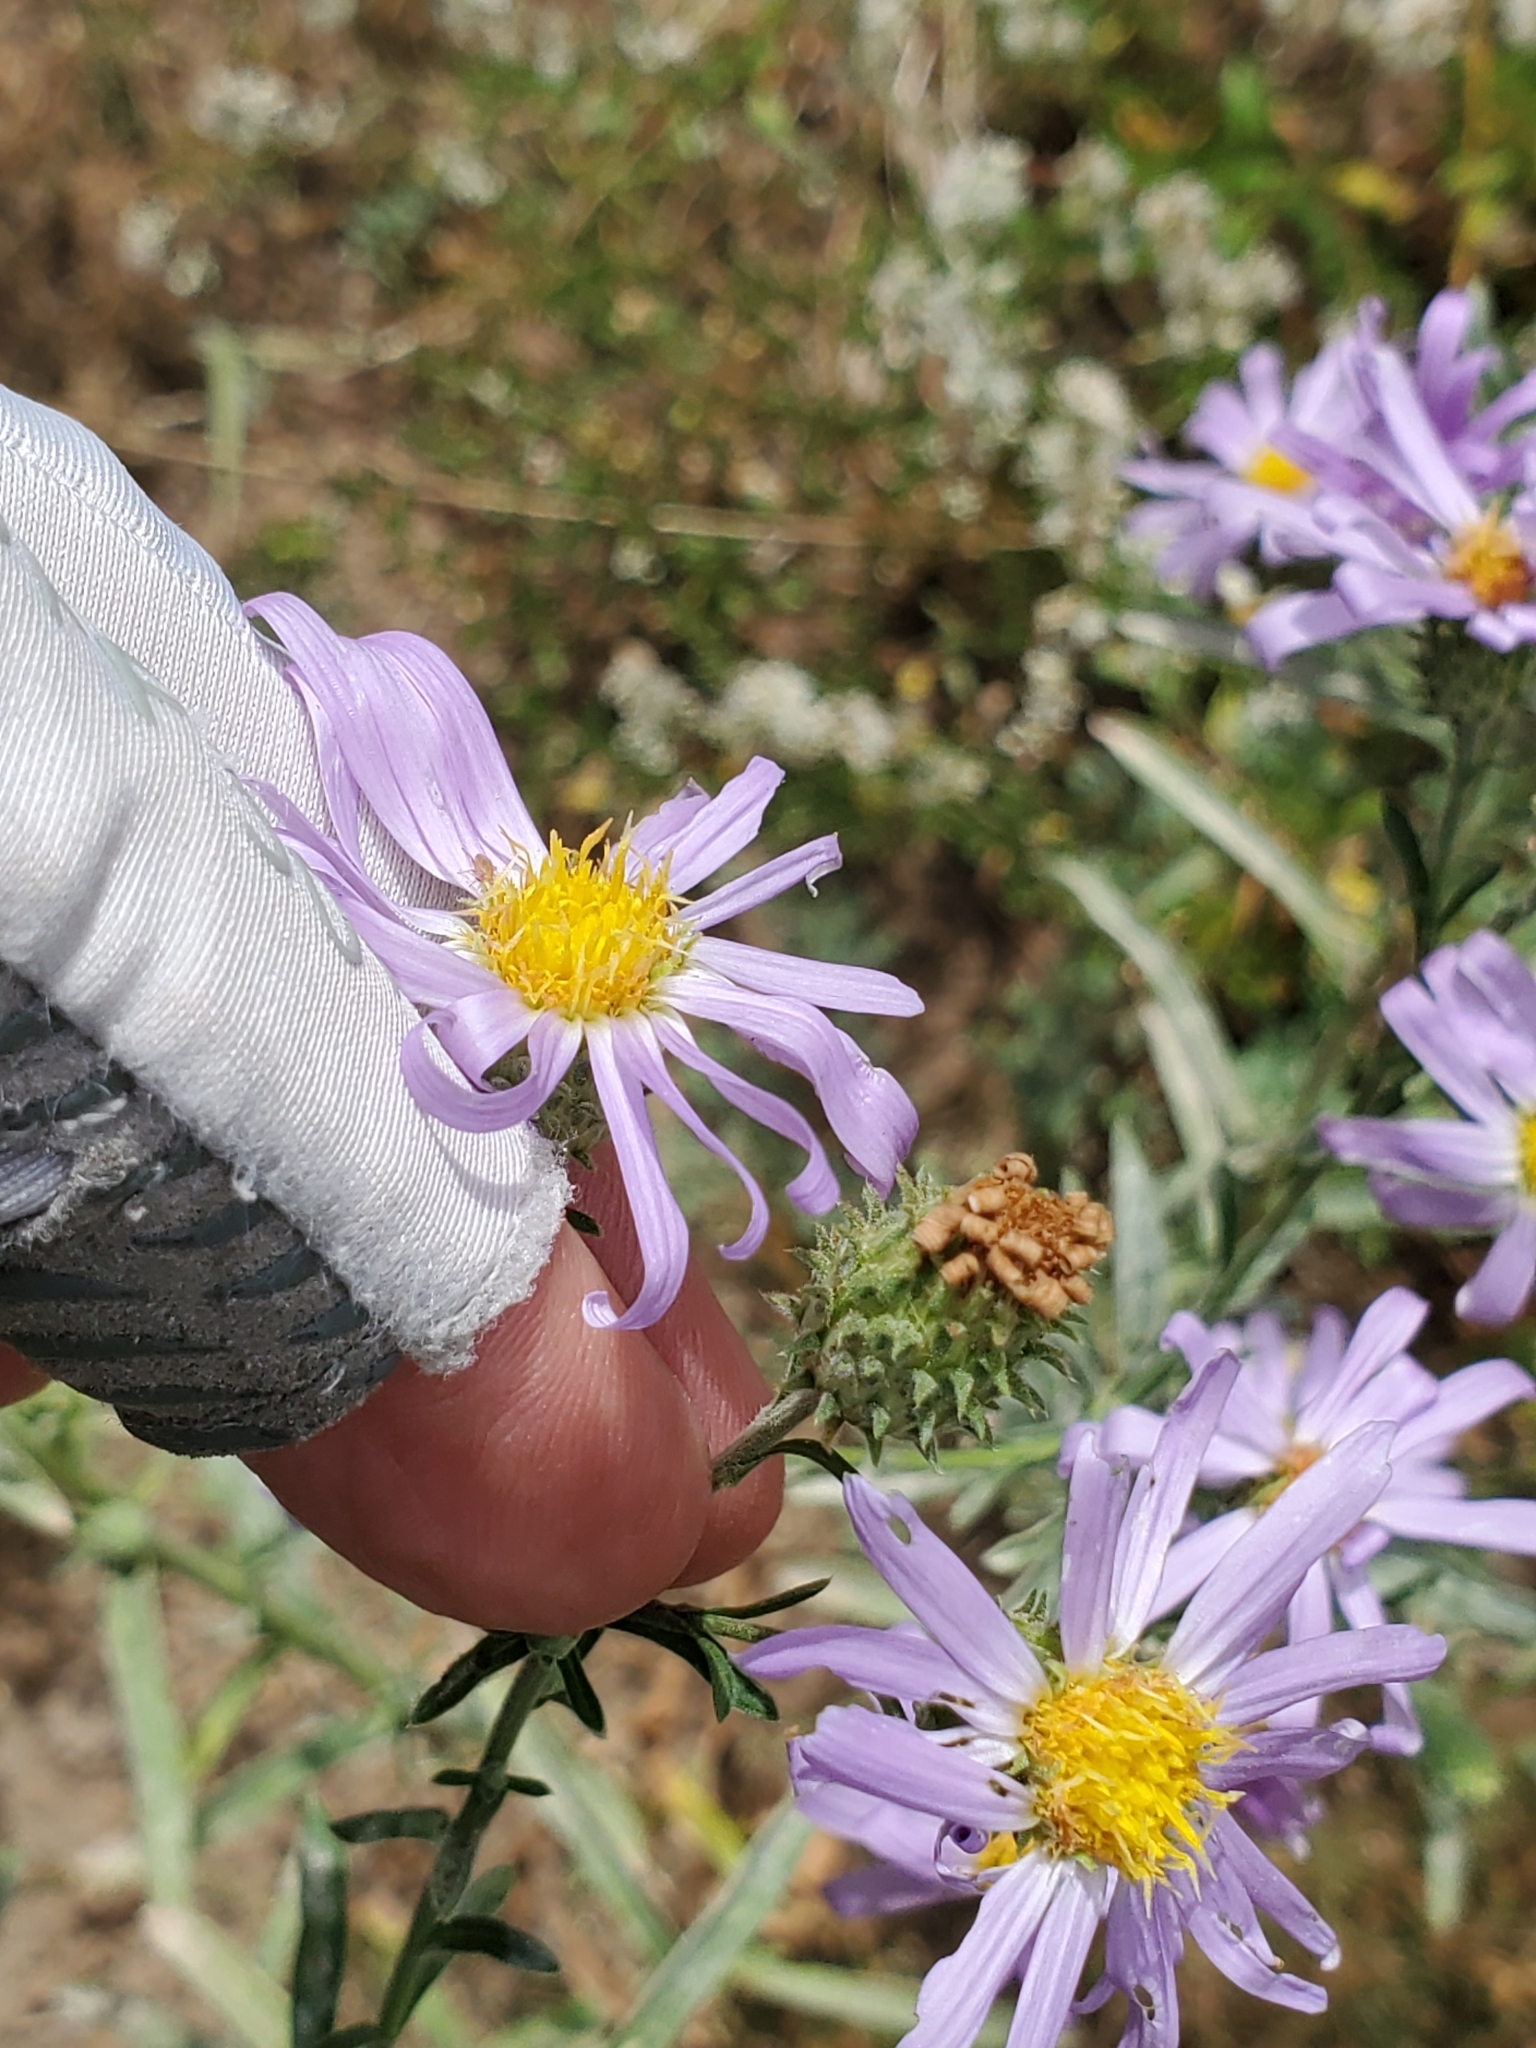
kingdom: Plantae
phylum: Tracheophyta
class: Magnoliopsida
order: Asterales
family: Asteraceae
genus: Dieteria
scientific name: Dieteria asteroides
